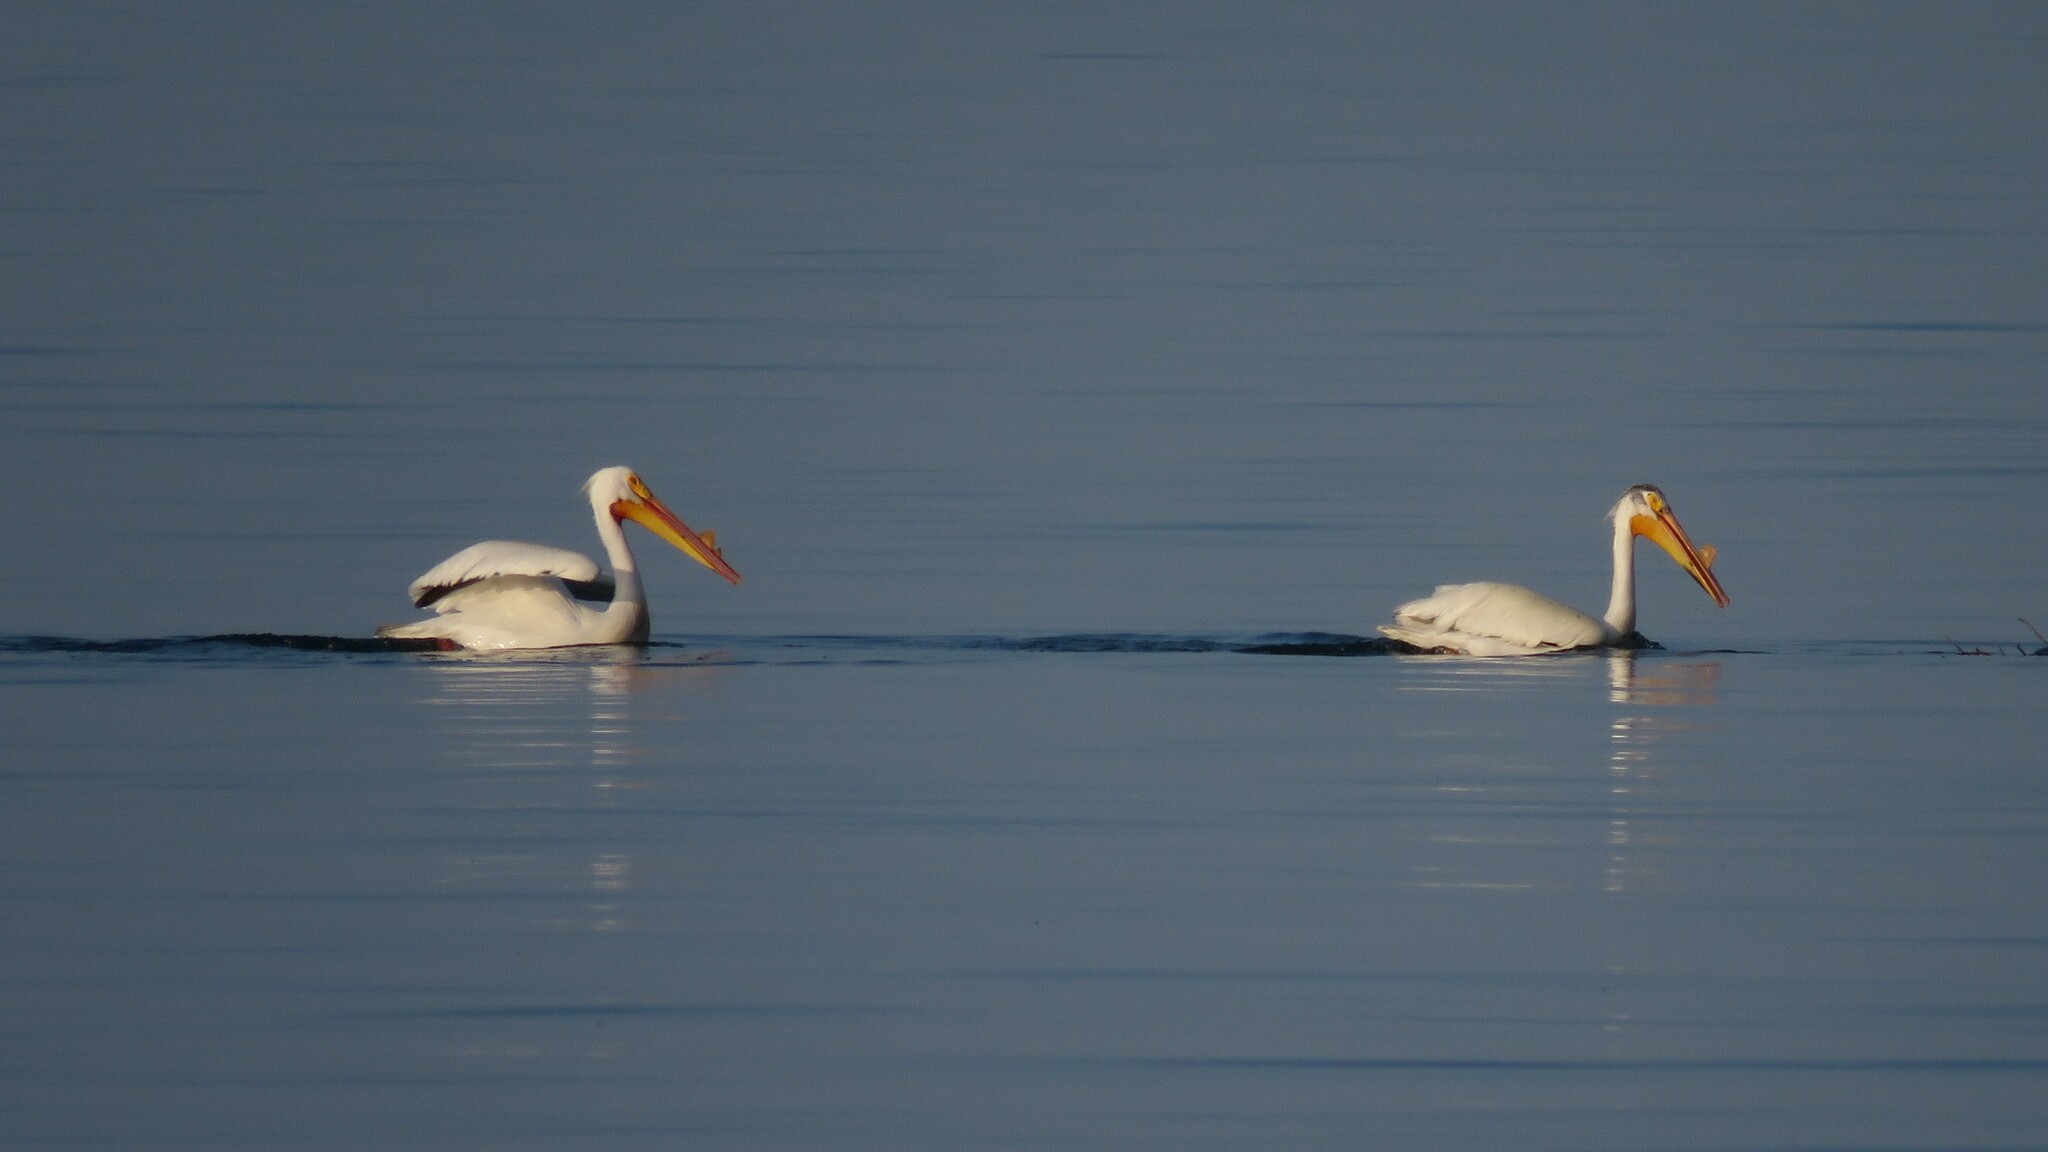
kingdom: Animalia
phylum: Chordata
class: Aves
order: Pelecaniformes
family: Pelecanidae
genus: Pelecanus
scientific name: Pelecanus erythrorhynchos
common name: American white pelican
